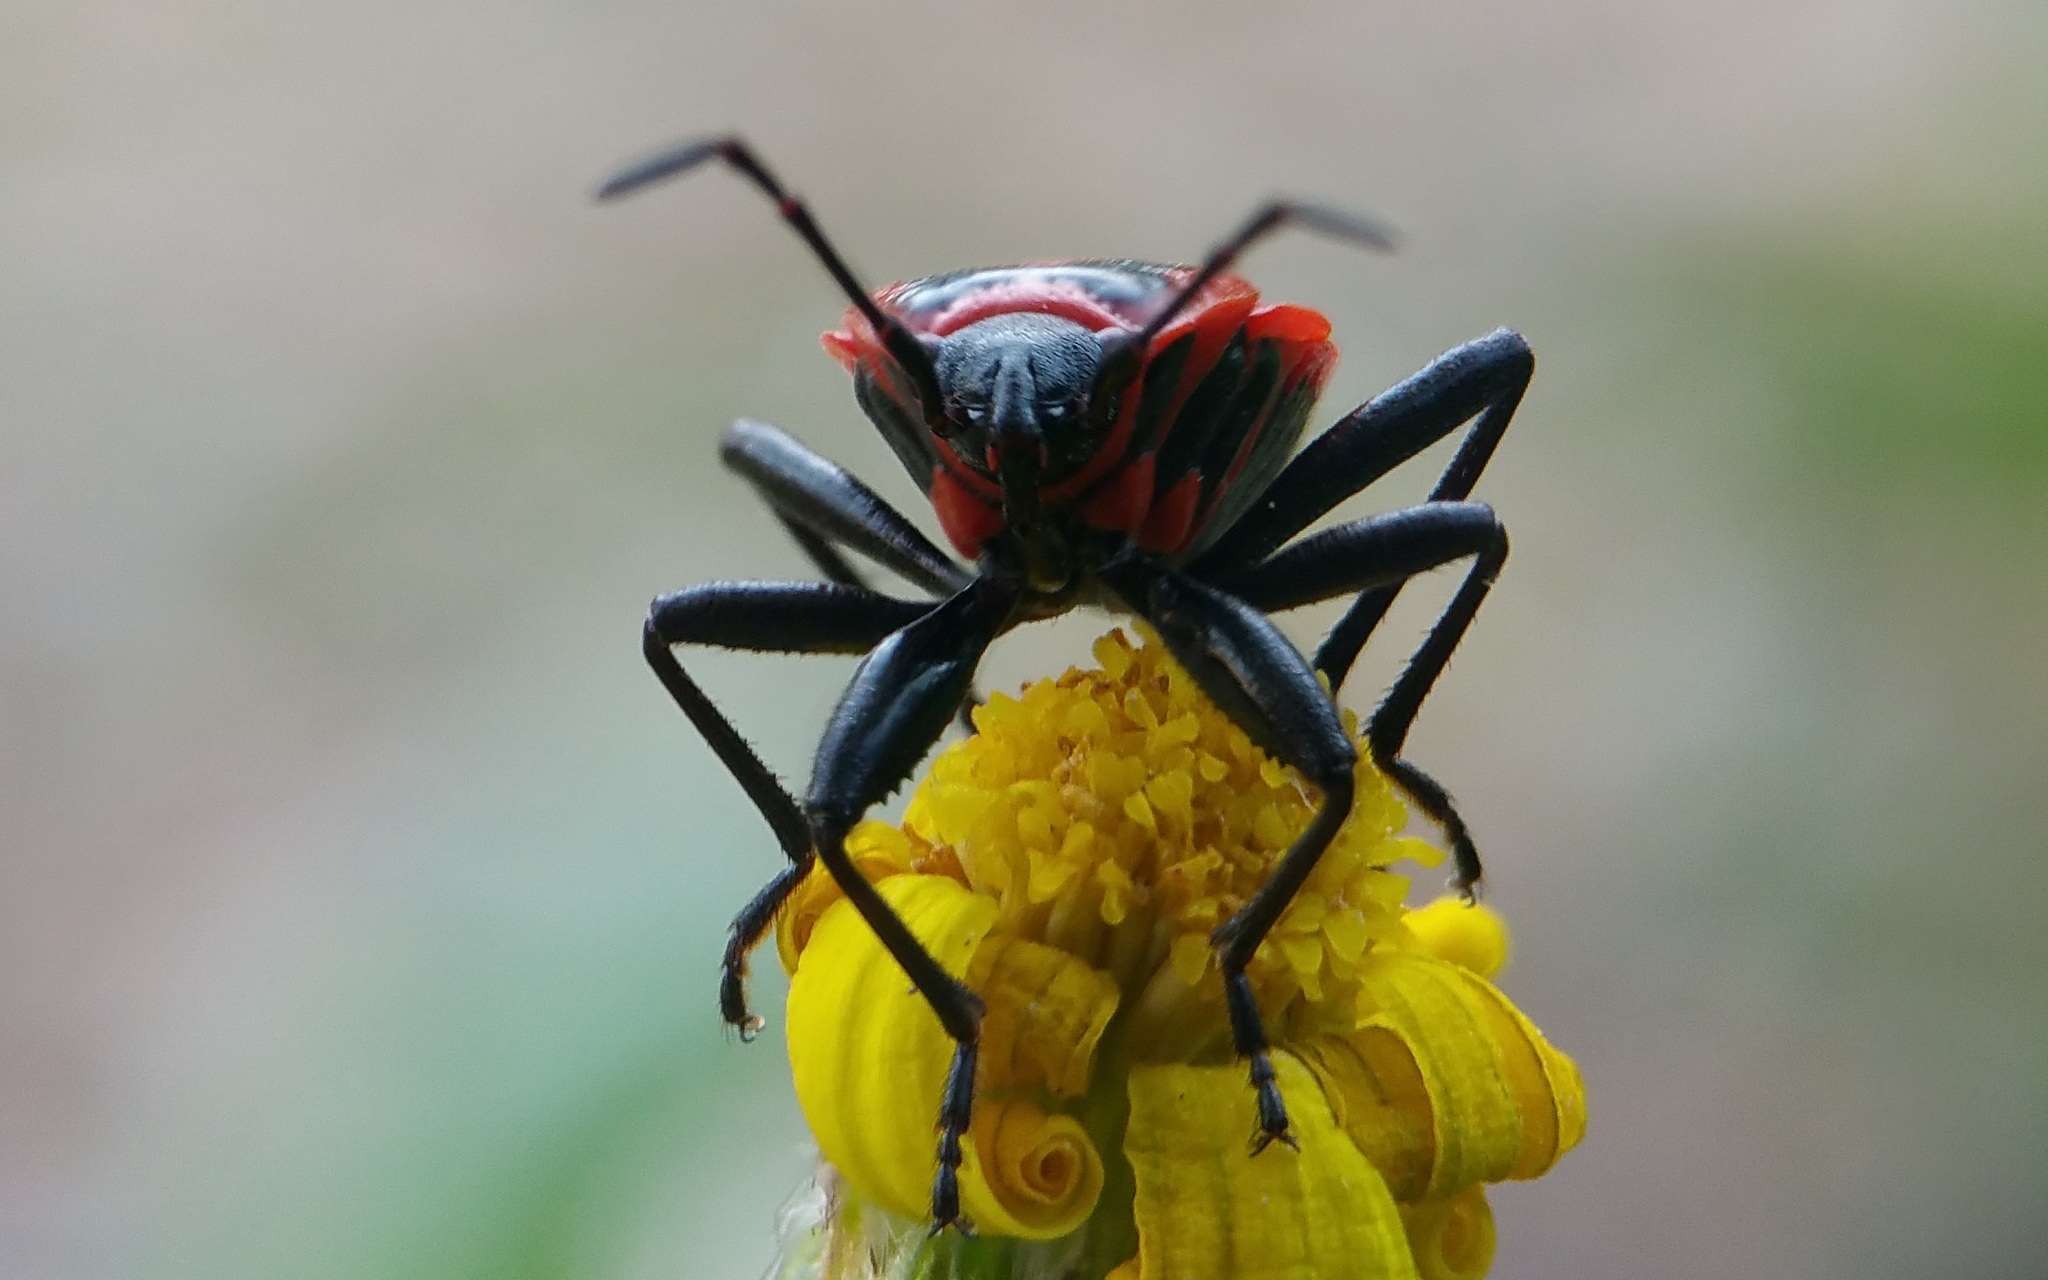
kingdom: Animalia
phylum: Arthropoda
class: Insecta
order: Hemiptera
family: Pyrrhocoridae
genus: Pyrrhocoris
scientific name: Pyrrhocoris apterus
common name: Firebug
